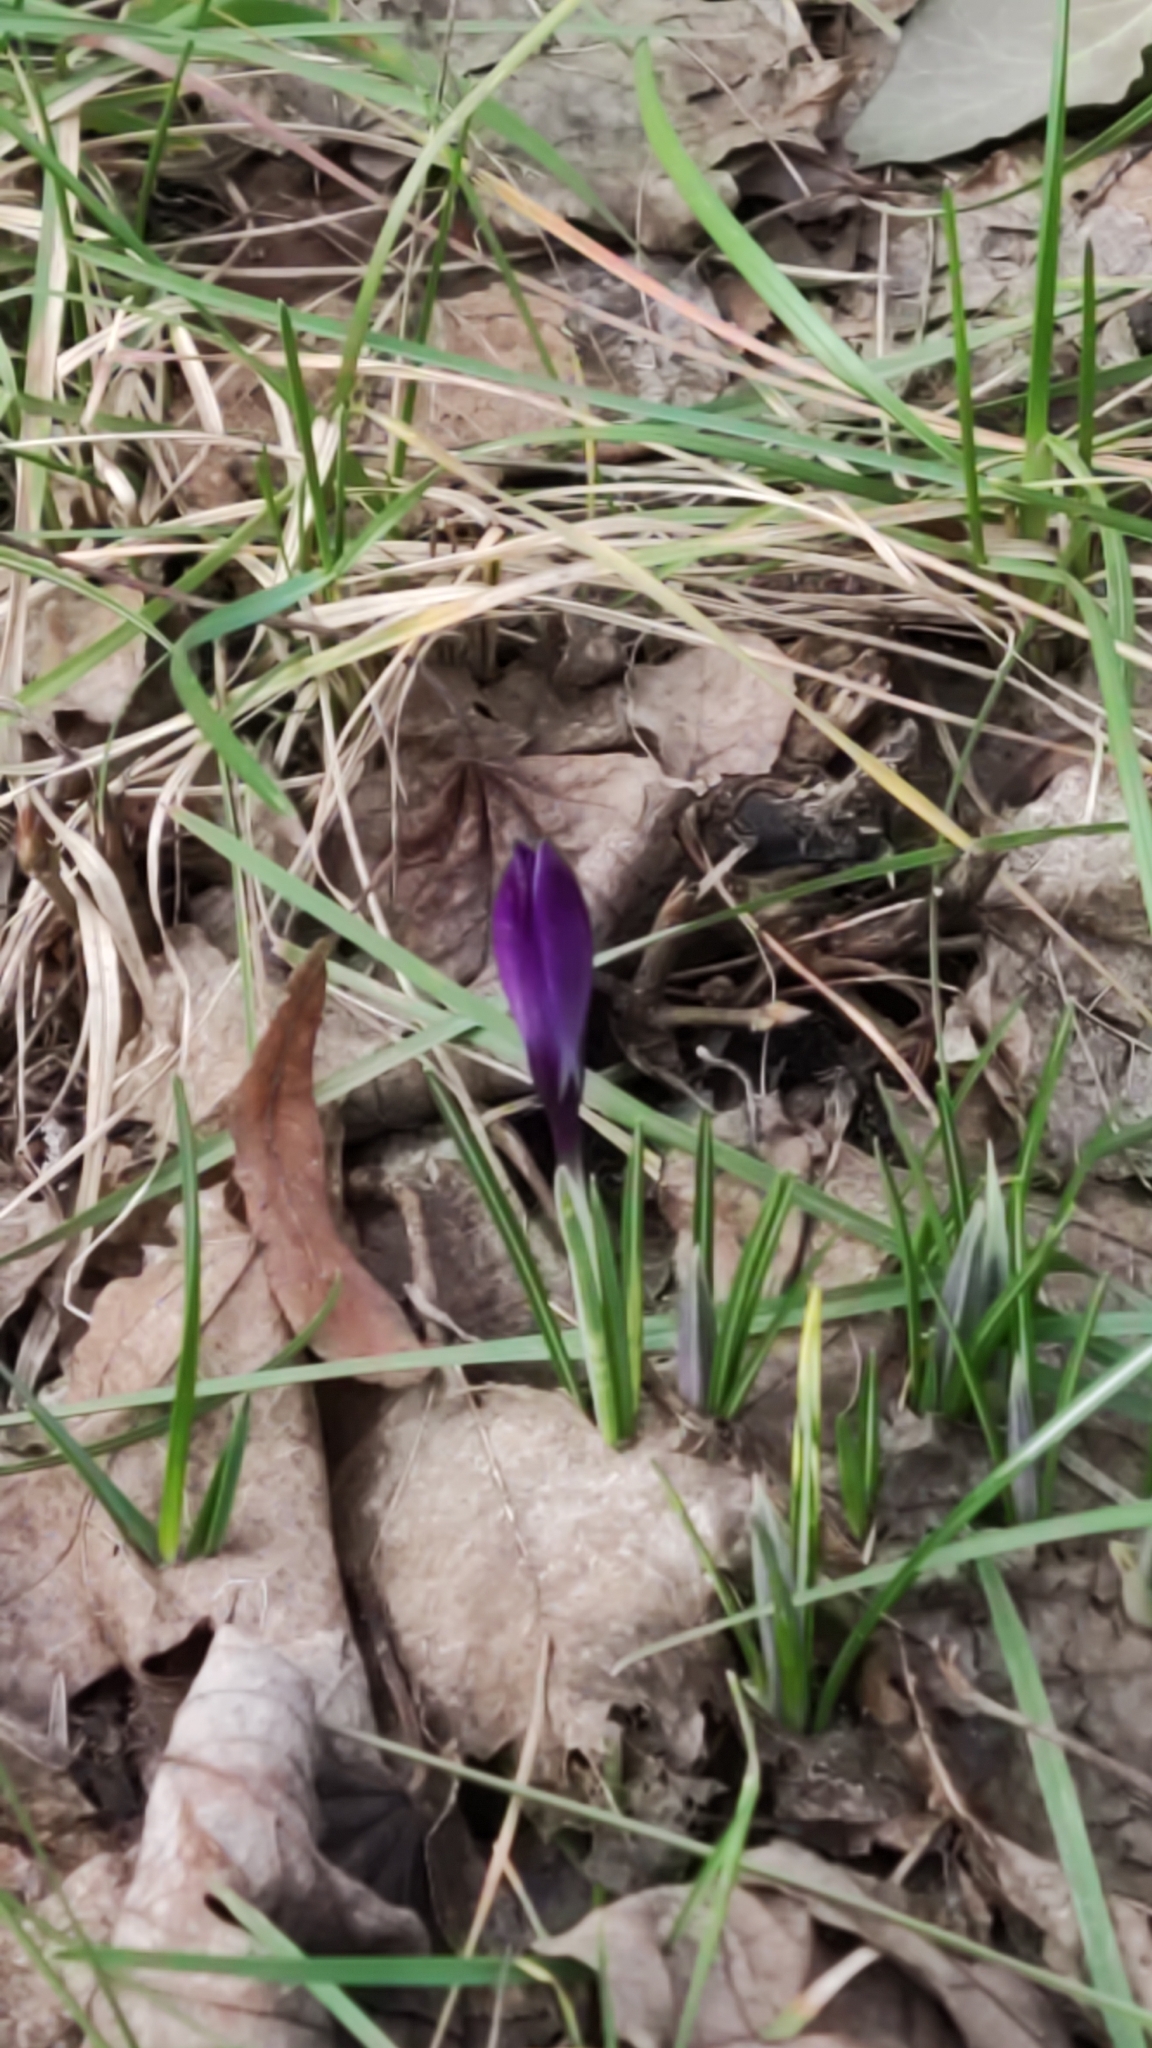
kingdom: Plantae
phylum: Tracheophyta
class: Liliopsida
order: Asparagales
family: Iridaceae
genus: Crocus
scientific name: Crocus vernus
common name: Spring crocus
